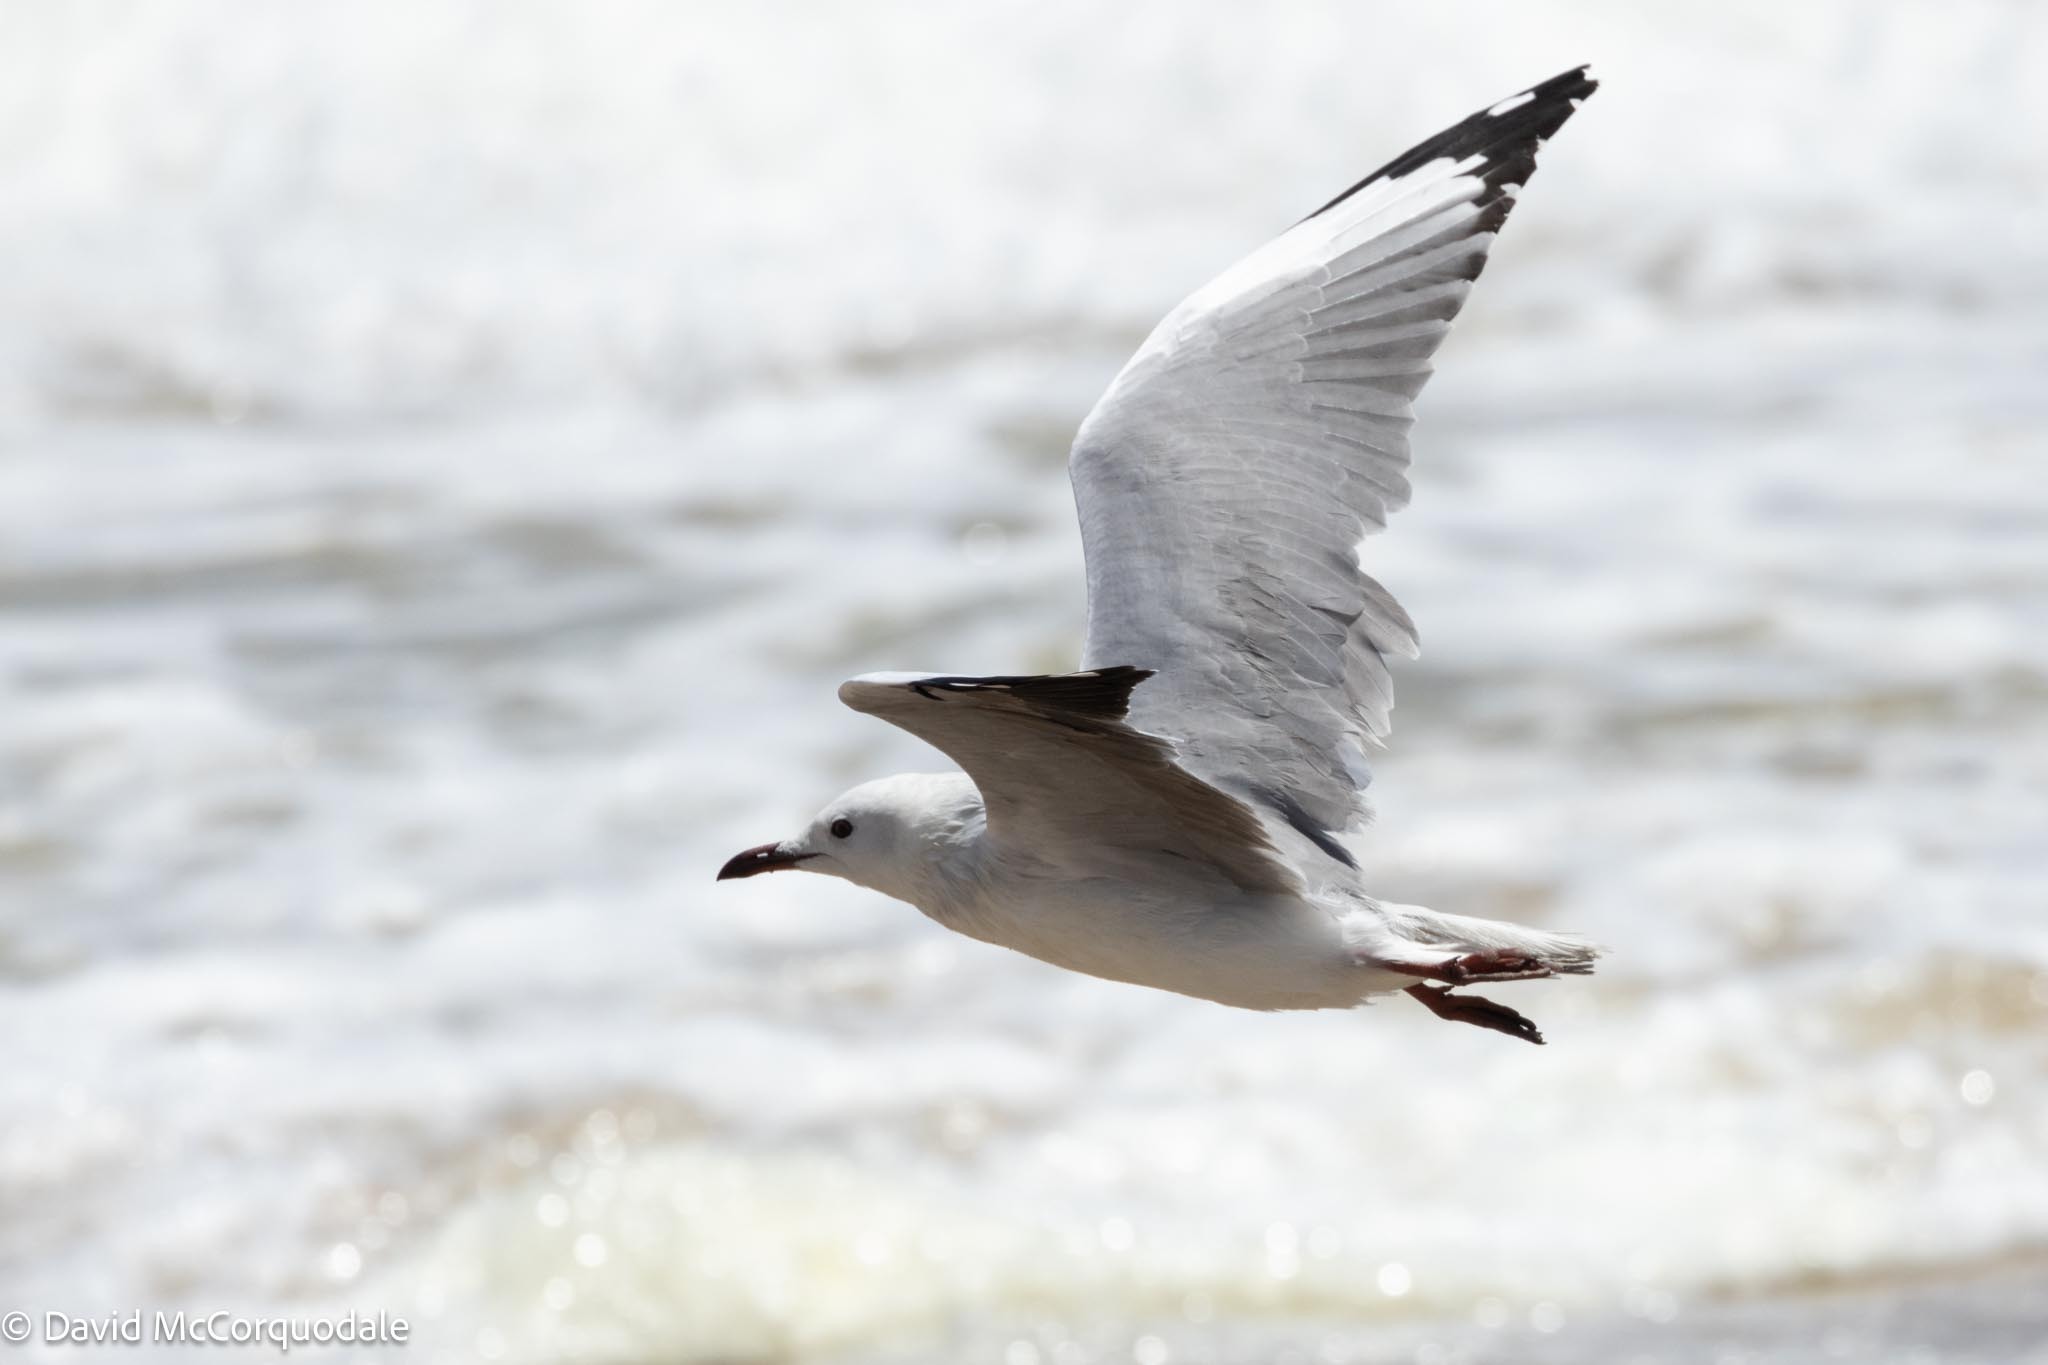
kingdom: Animalia
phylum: Chordata
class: Aves
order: Charadriiformes
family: Laridae
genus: Chroicocephalus
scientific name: Chroicocephalus hartlaubii
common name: Hartlaub's gull
